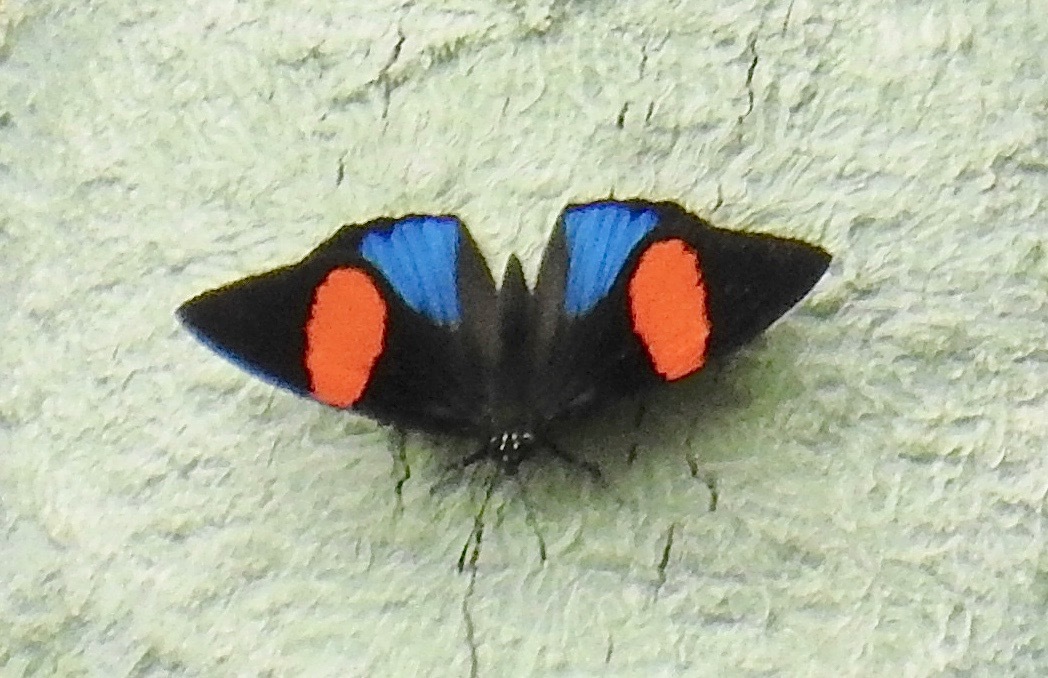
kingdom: Animalia
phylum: Arthropoda
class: Insecta
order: Lepidoptera
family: Nymphalidae
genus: Catagramma
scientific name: Catagramma tolima
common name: Blue-and-orange eighty-eight
